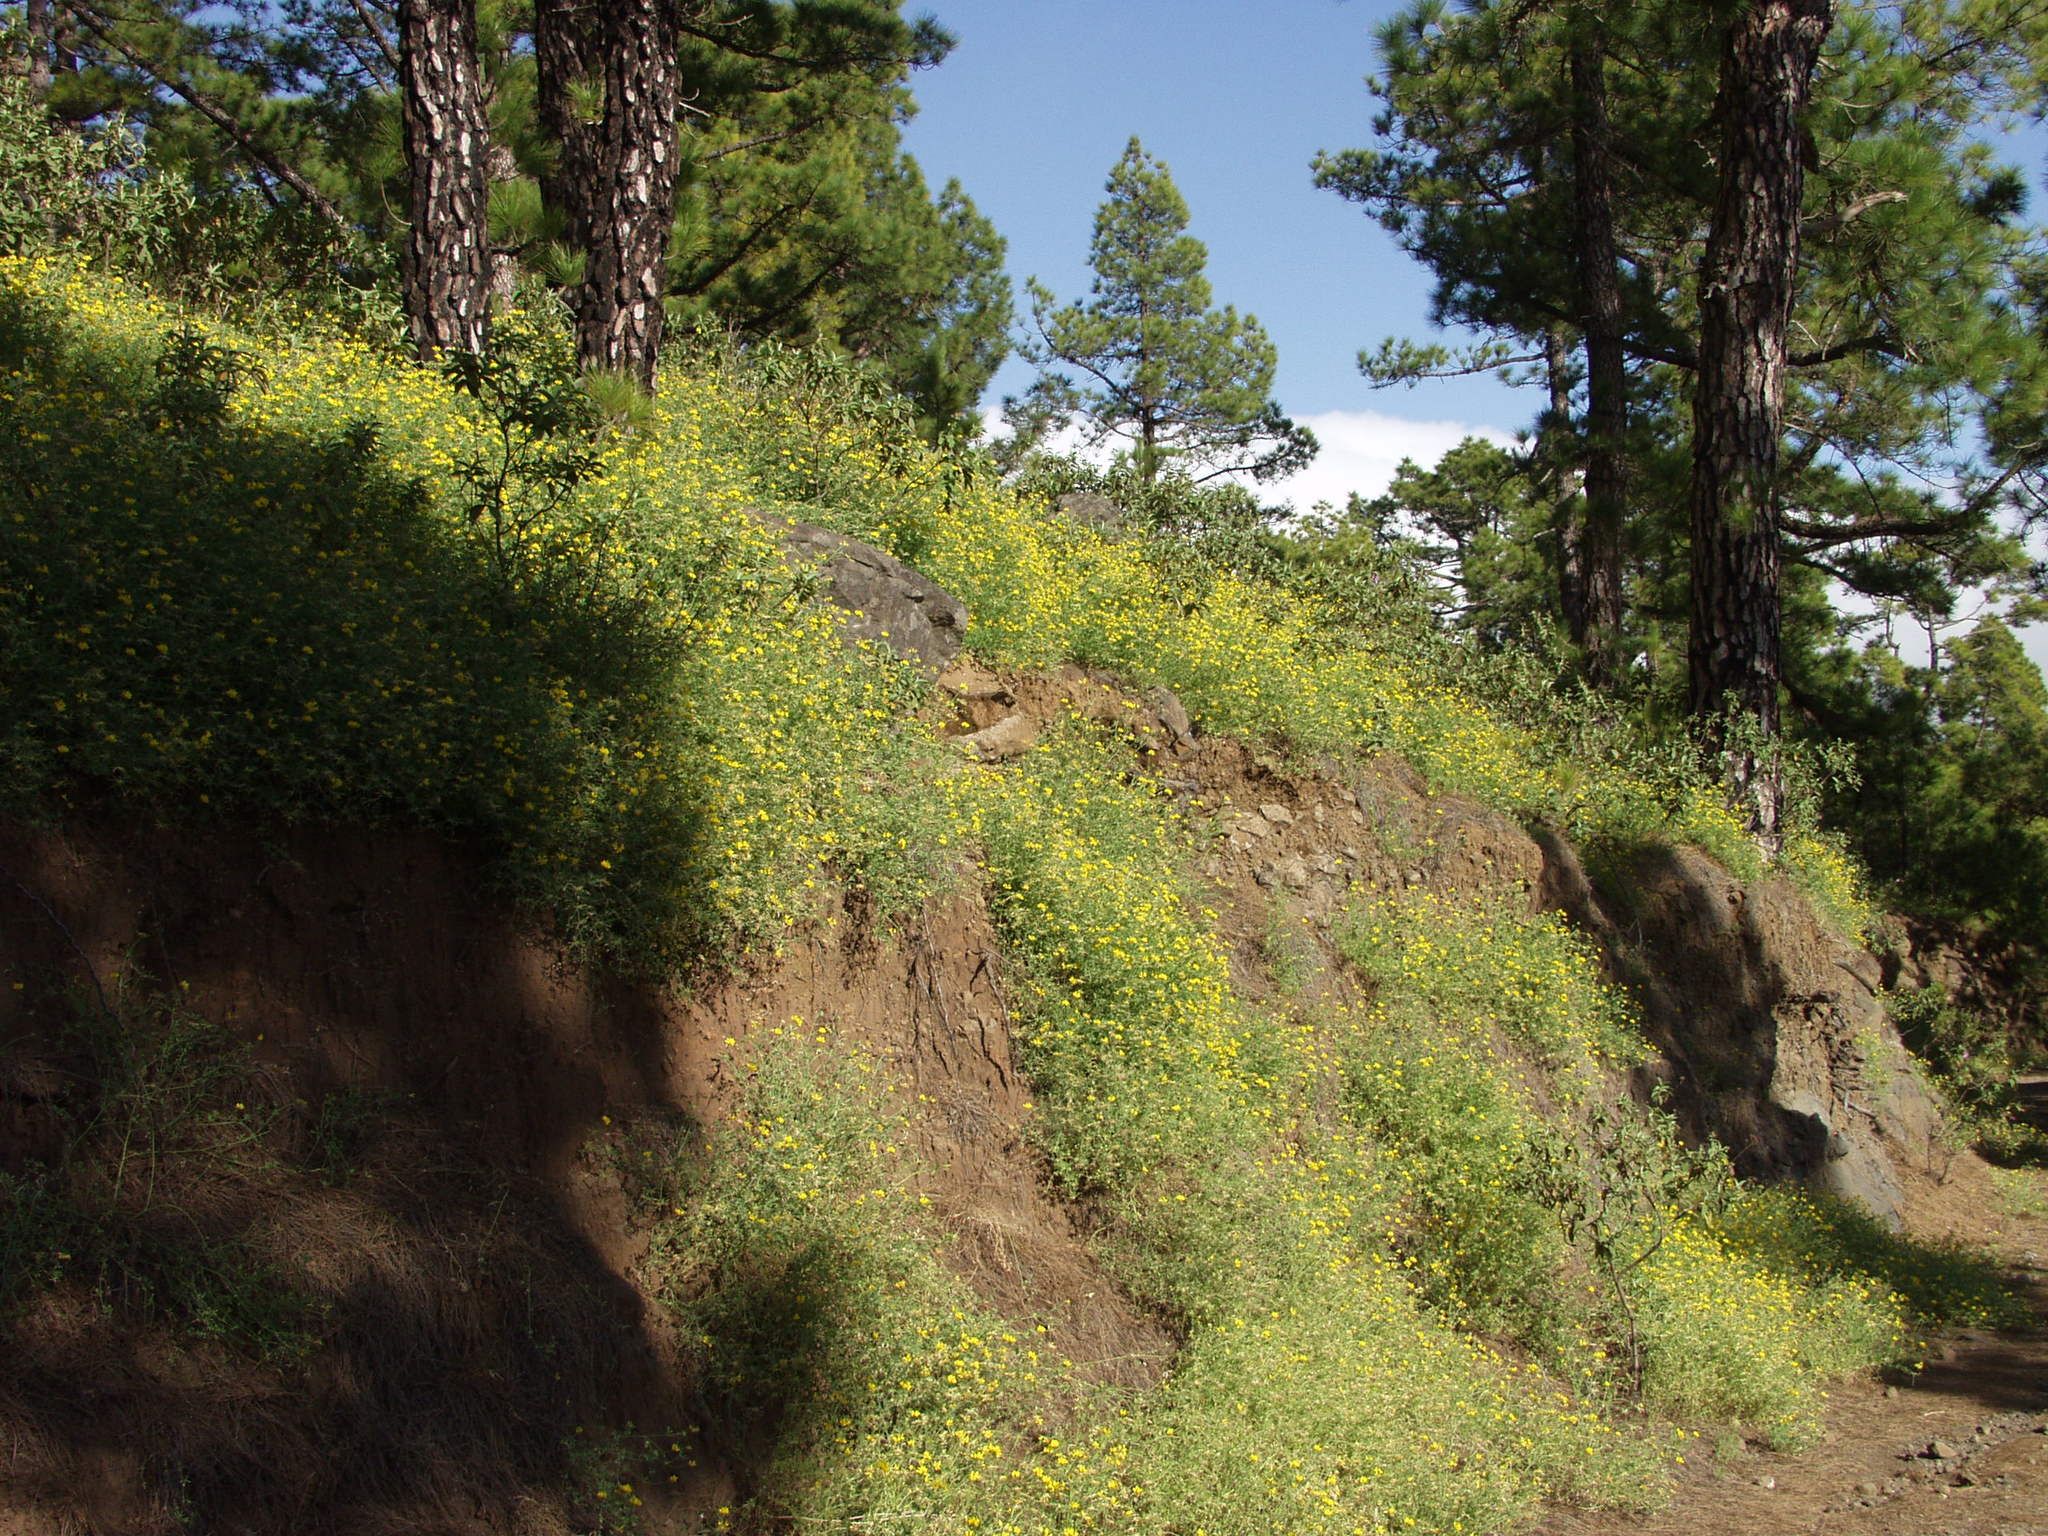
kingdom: Plantae
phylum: Tracheophyta
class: Magnoliopsida
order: Fabales
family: Fabaceae
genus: Lotus
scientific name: Lotus campylocladus
